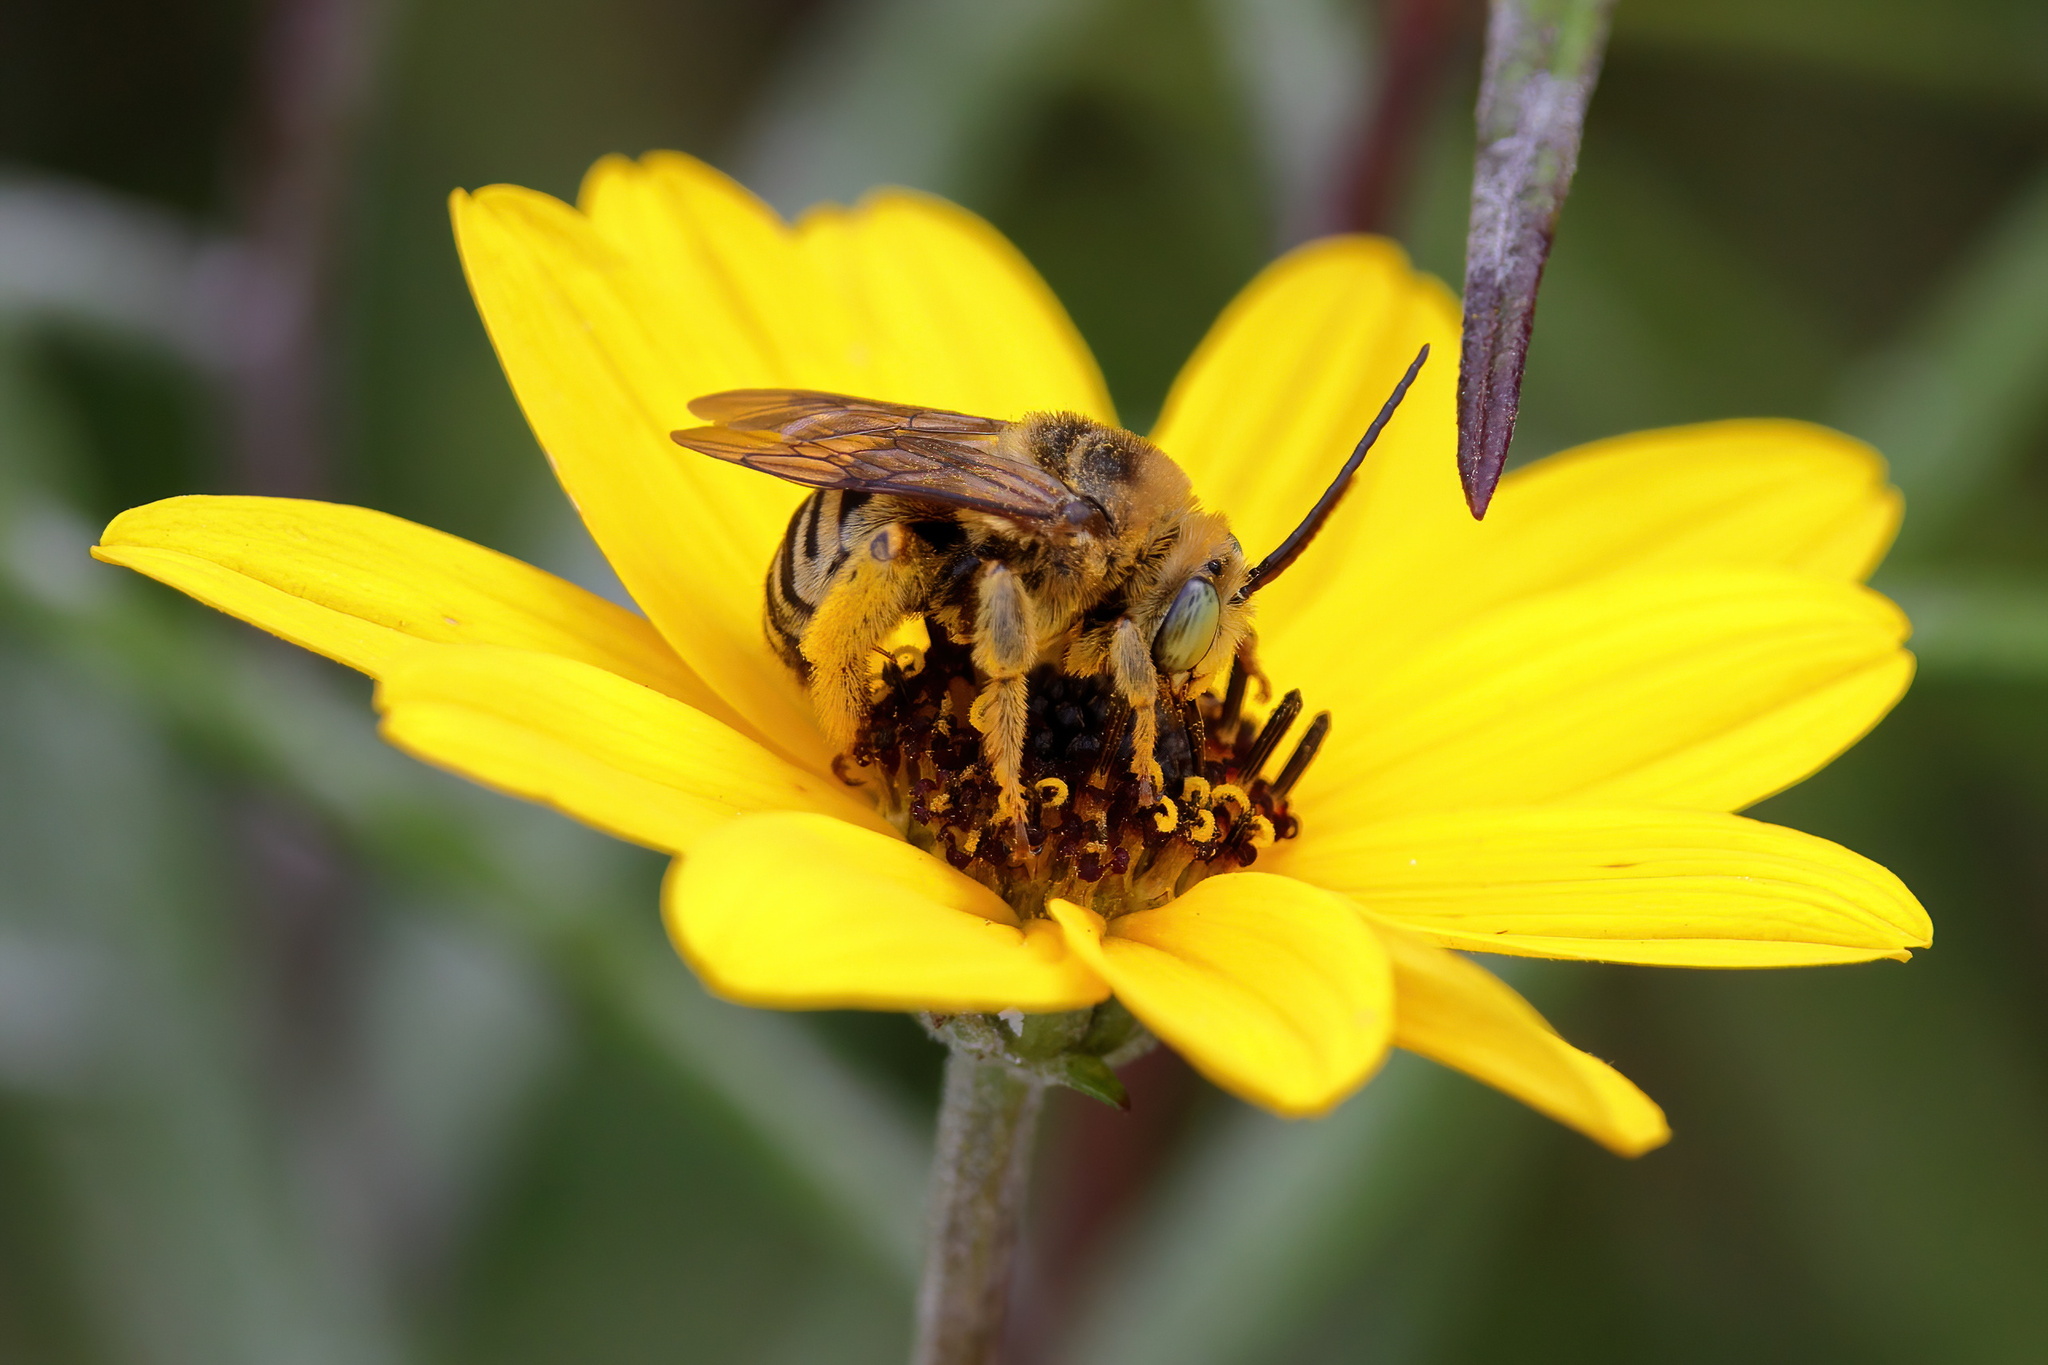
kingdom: Animalia
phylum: Arthropoda
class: Insecta
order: Hymenoptera
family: Apidae
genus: Svastra
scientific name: Svastra aegis
